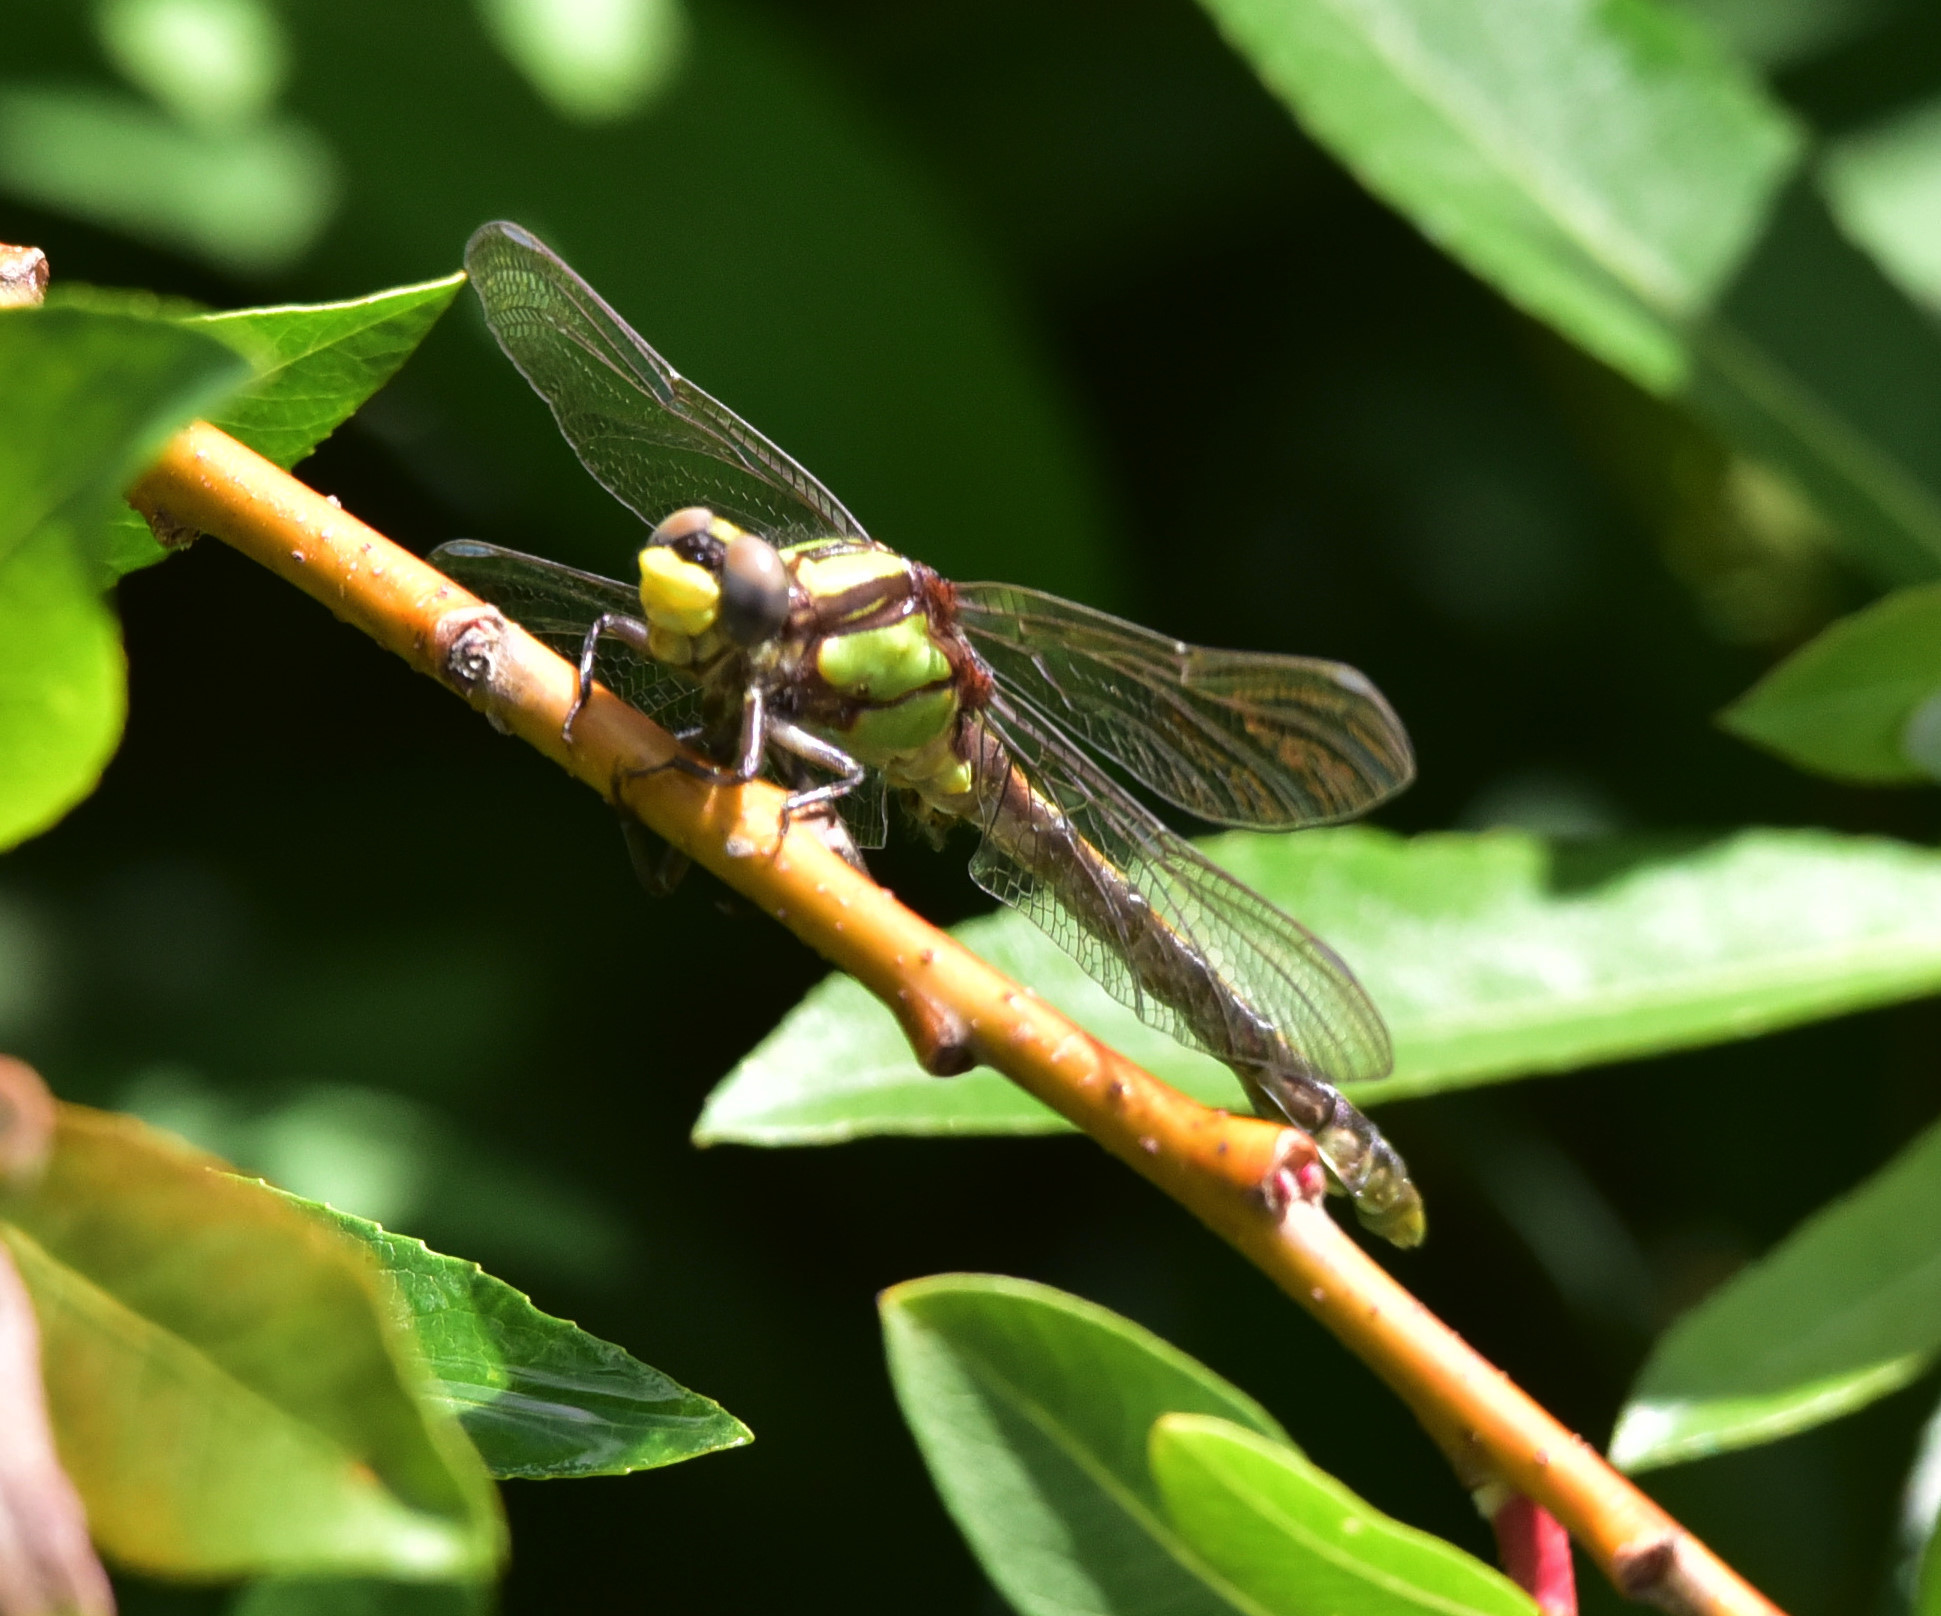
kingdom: Animalia
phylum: Arthropoda
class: Insecta
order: Odonata
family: Gomphidae
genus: Ophiogomphus
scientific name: Ophiogomphus bison
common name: Bison snaketail
